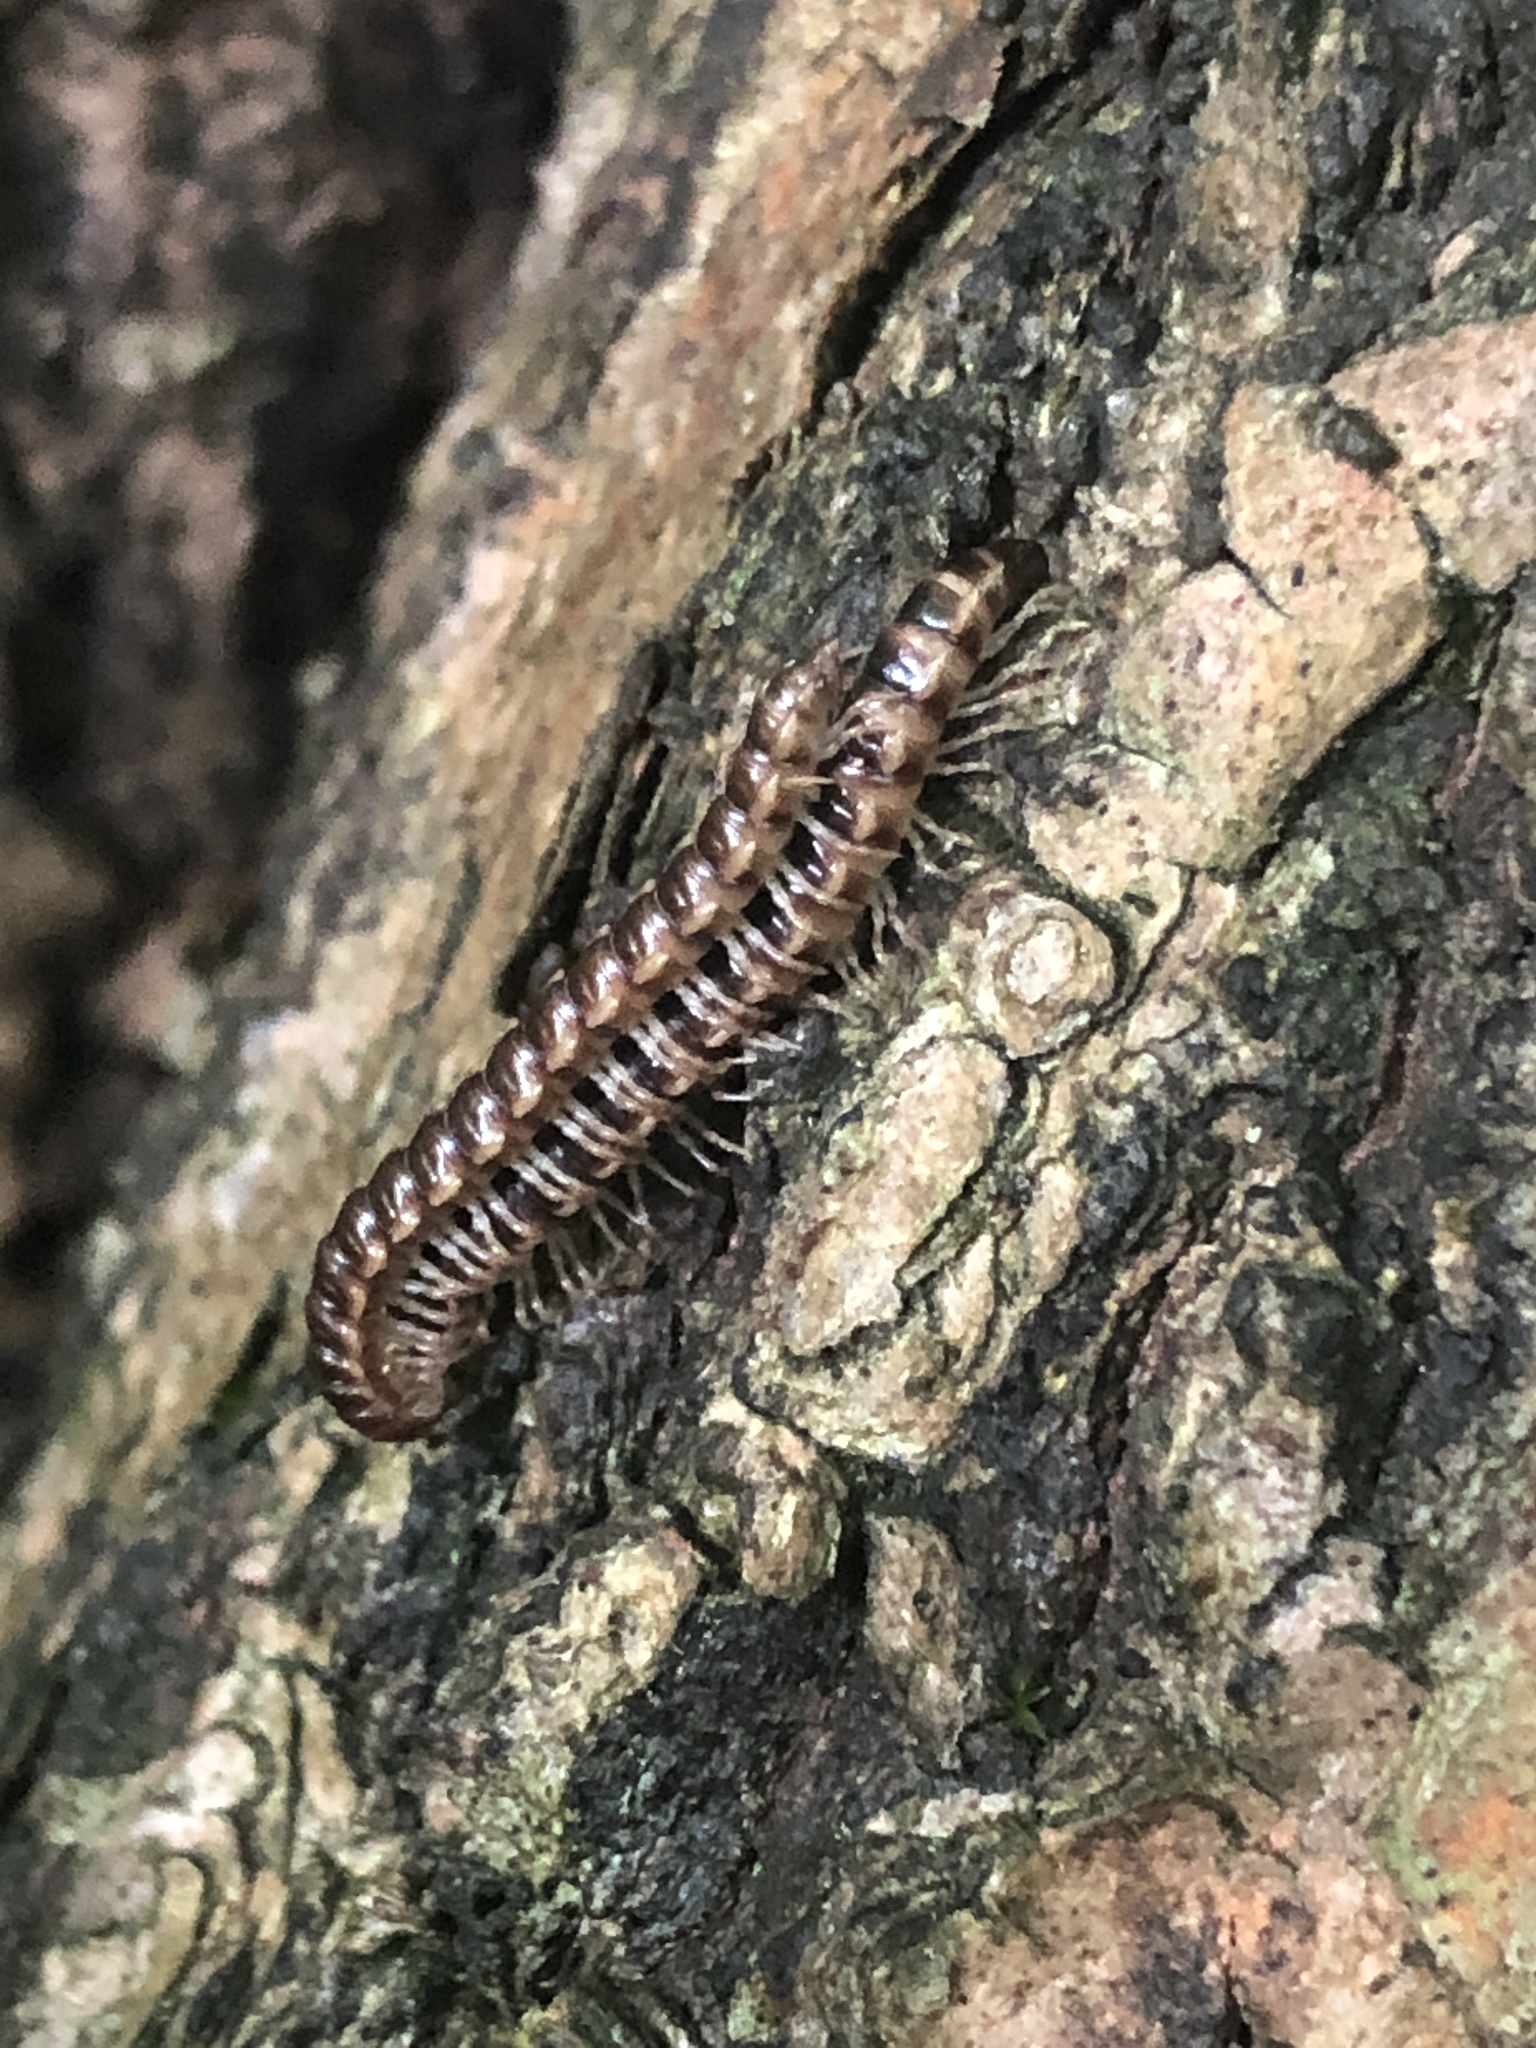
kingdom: Animalia
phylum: Arthropoda
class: Diplopoda
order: Polydesmida
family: Paradoxosomatidae
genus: Oxidus
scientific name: Oxidus gracilis
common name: Greenhouse millipede
